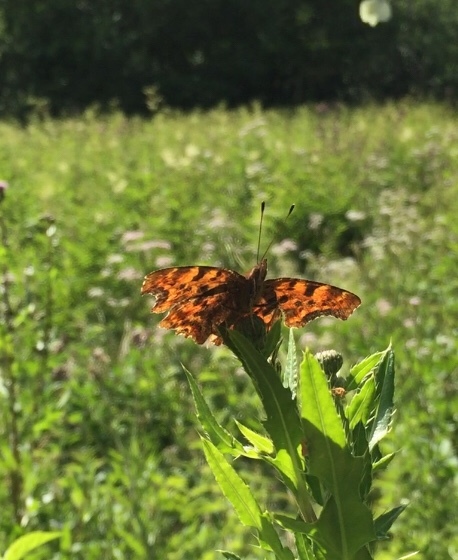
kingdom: Animalia
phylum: Arthropoda
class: Insecta
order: Lepidoptera
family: Nymphalidae
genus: Polygonia
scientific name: Polygonia c-album
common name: Comma
